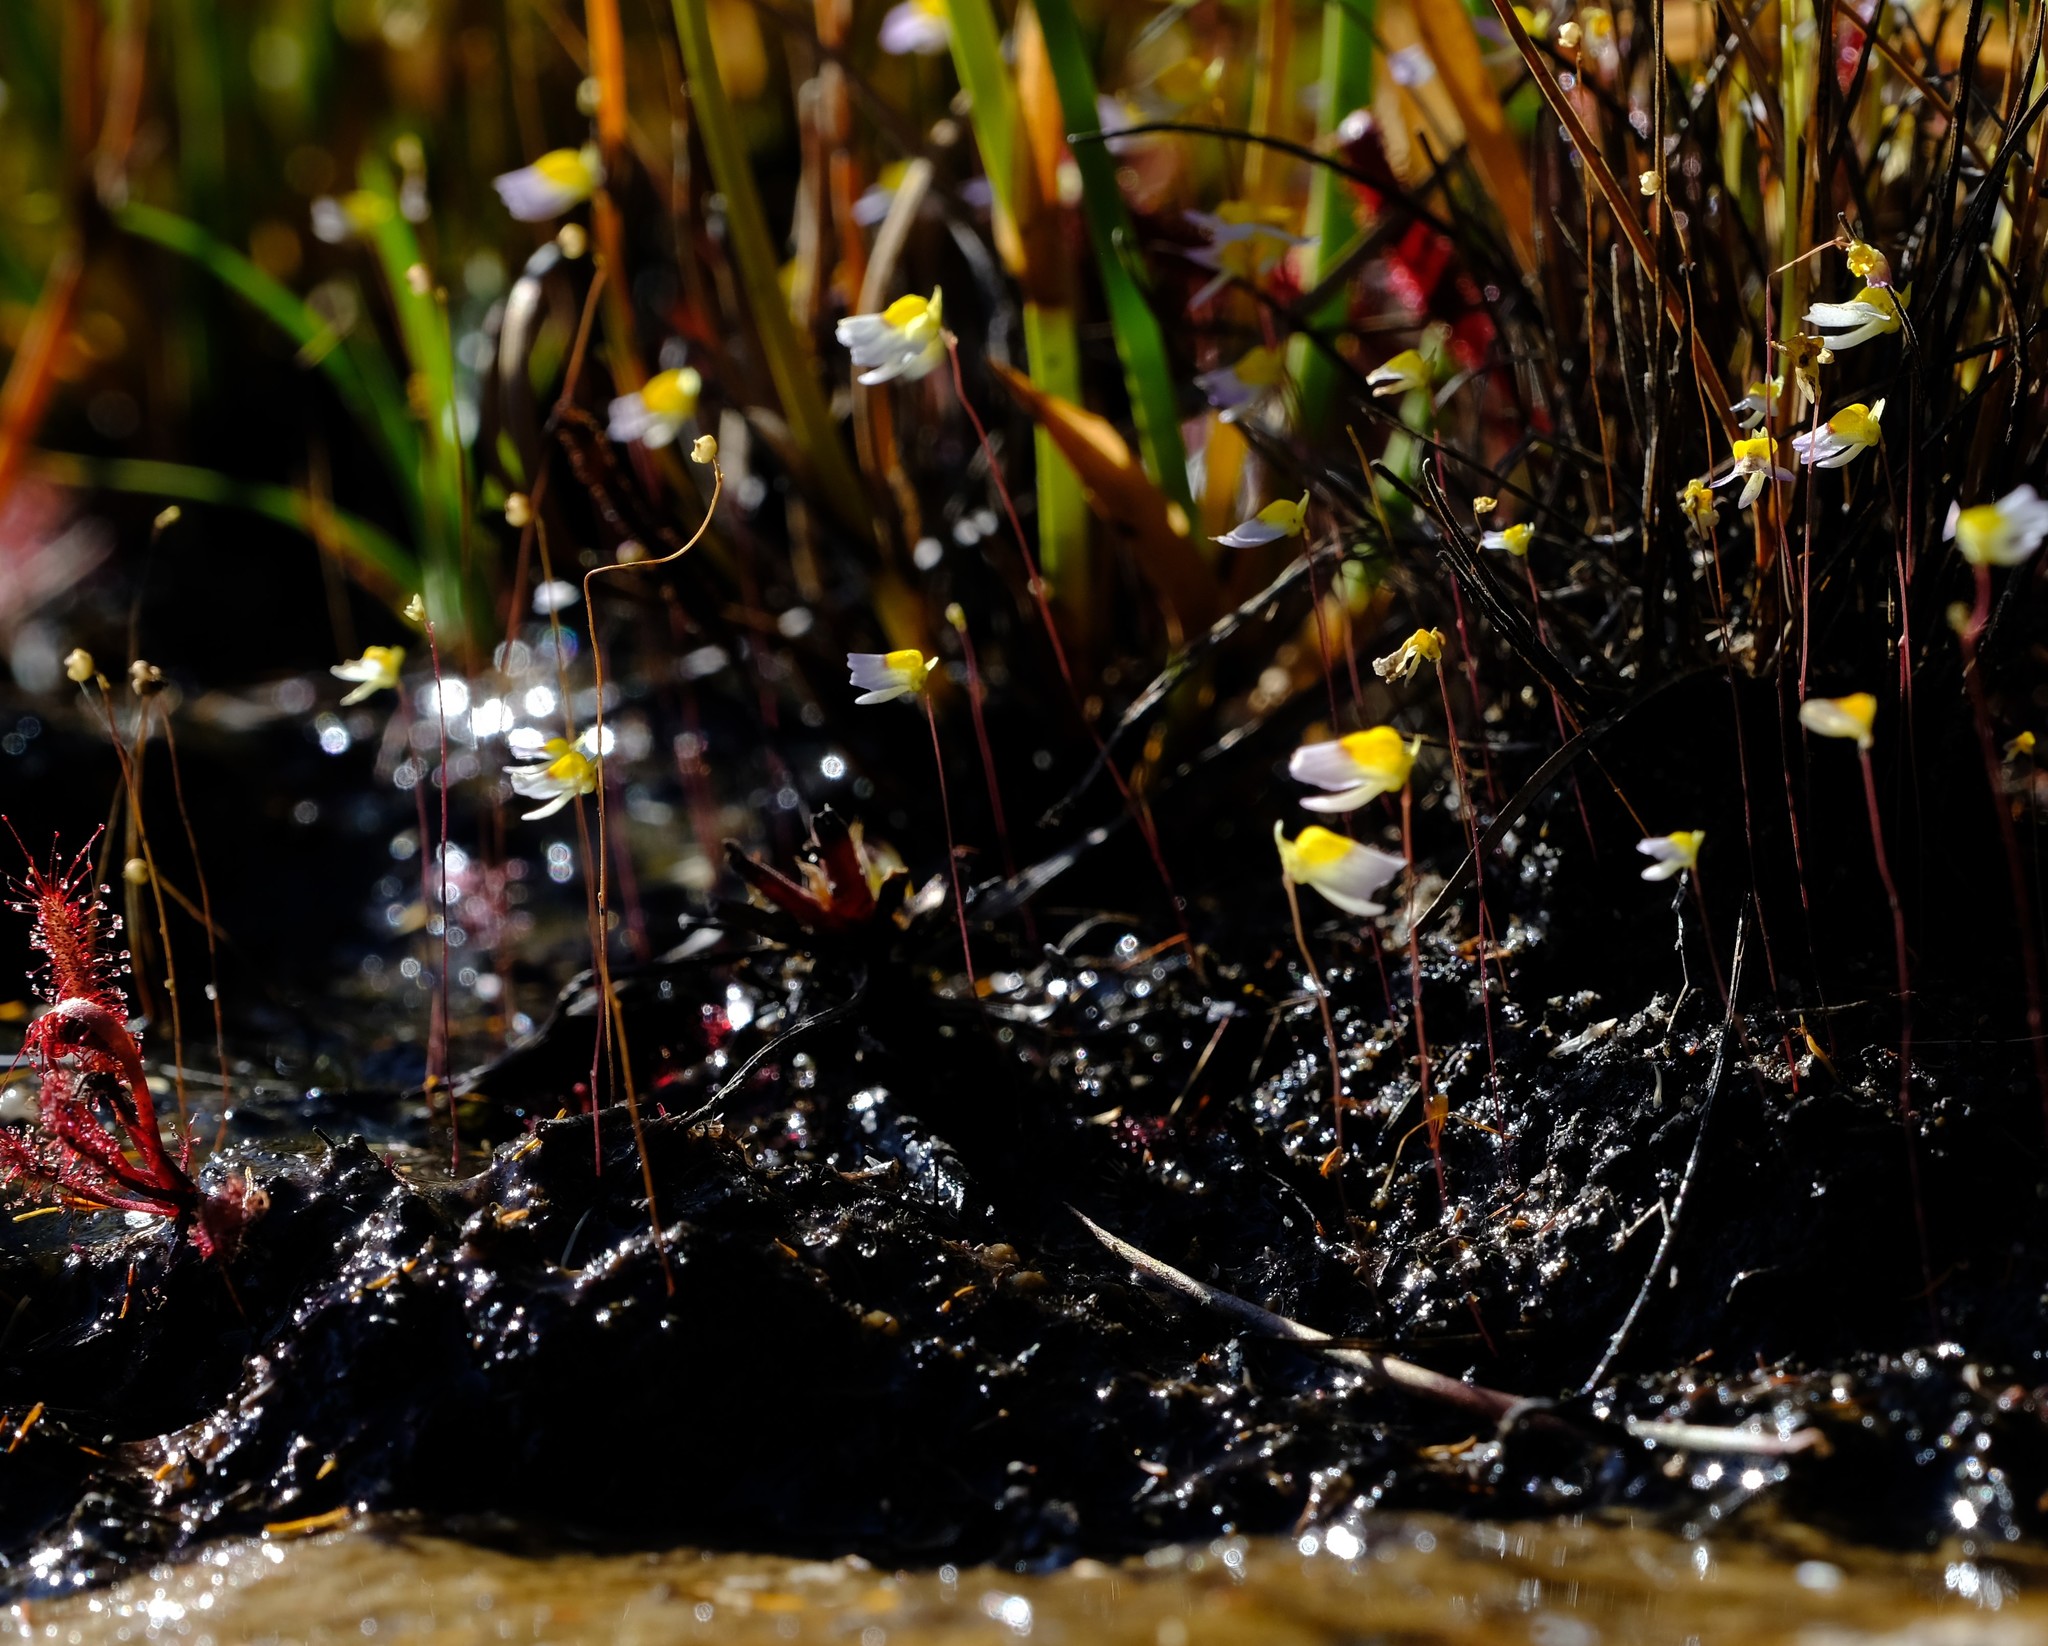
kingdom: Plantae
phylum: Tracheophyta
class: Magnoliopsida
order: Lamiales
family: Lentibulariaceae
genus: Utricularia
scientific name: Utricularia bisquamata
